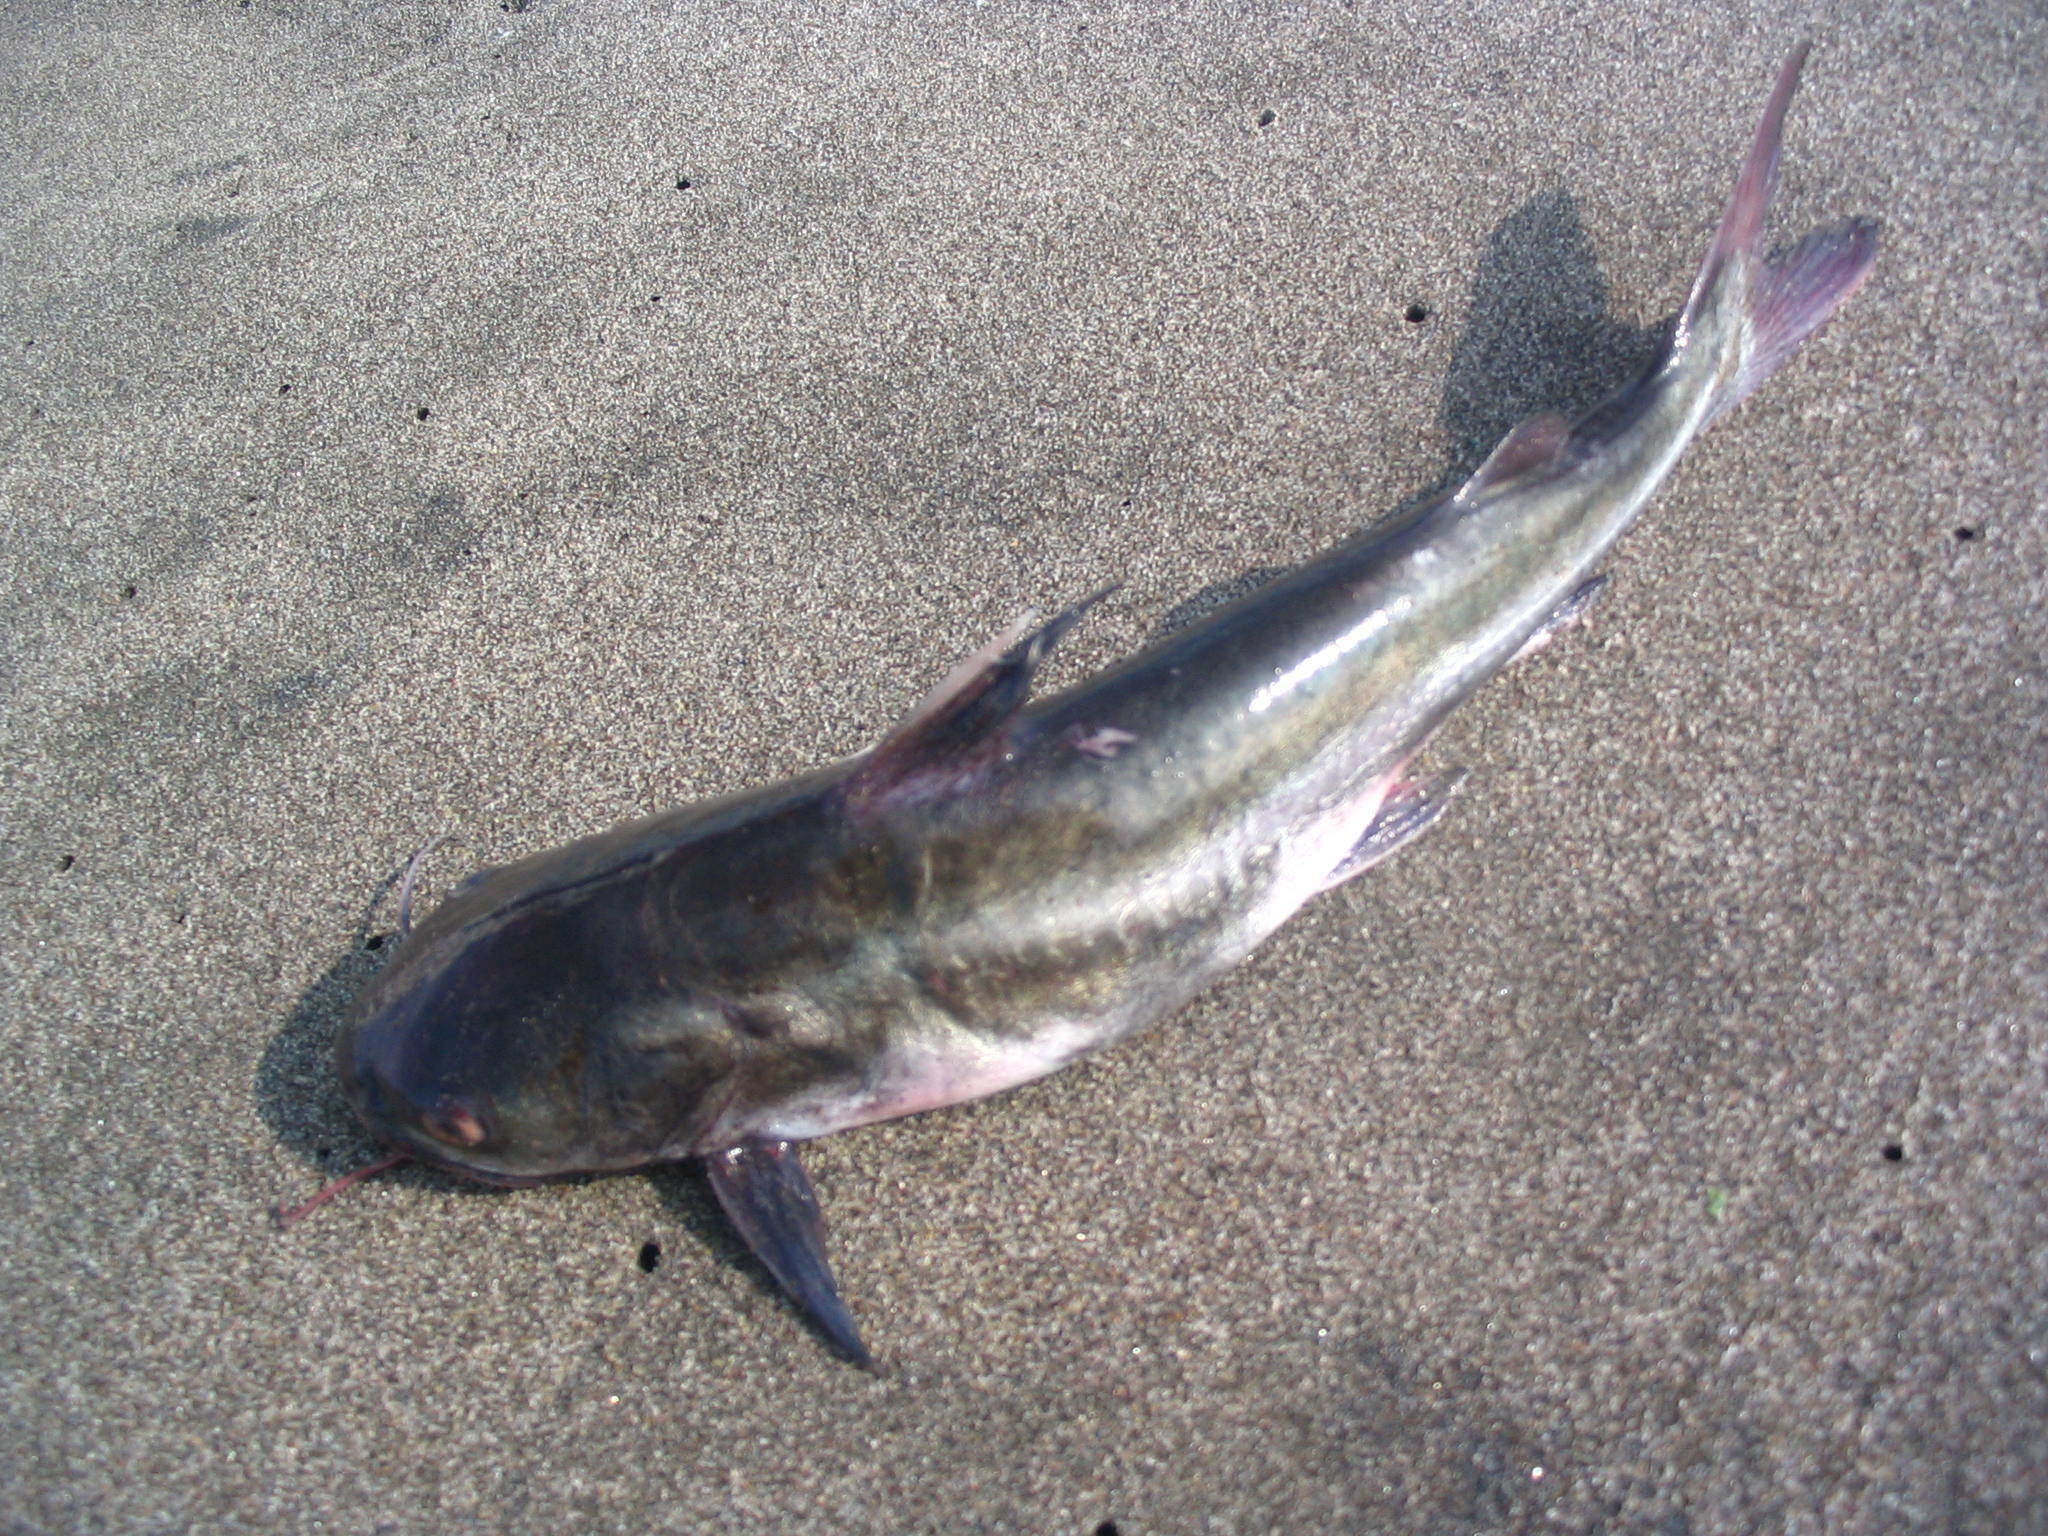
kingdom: Animalia
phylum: Chordata
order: Siluriformes
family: Ariidae
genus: Galeichthys
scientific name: Galeichthys peruvianus
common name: Peruvian sea catfish
